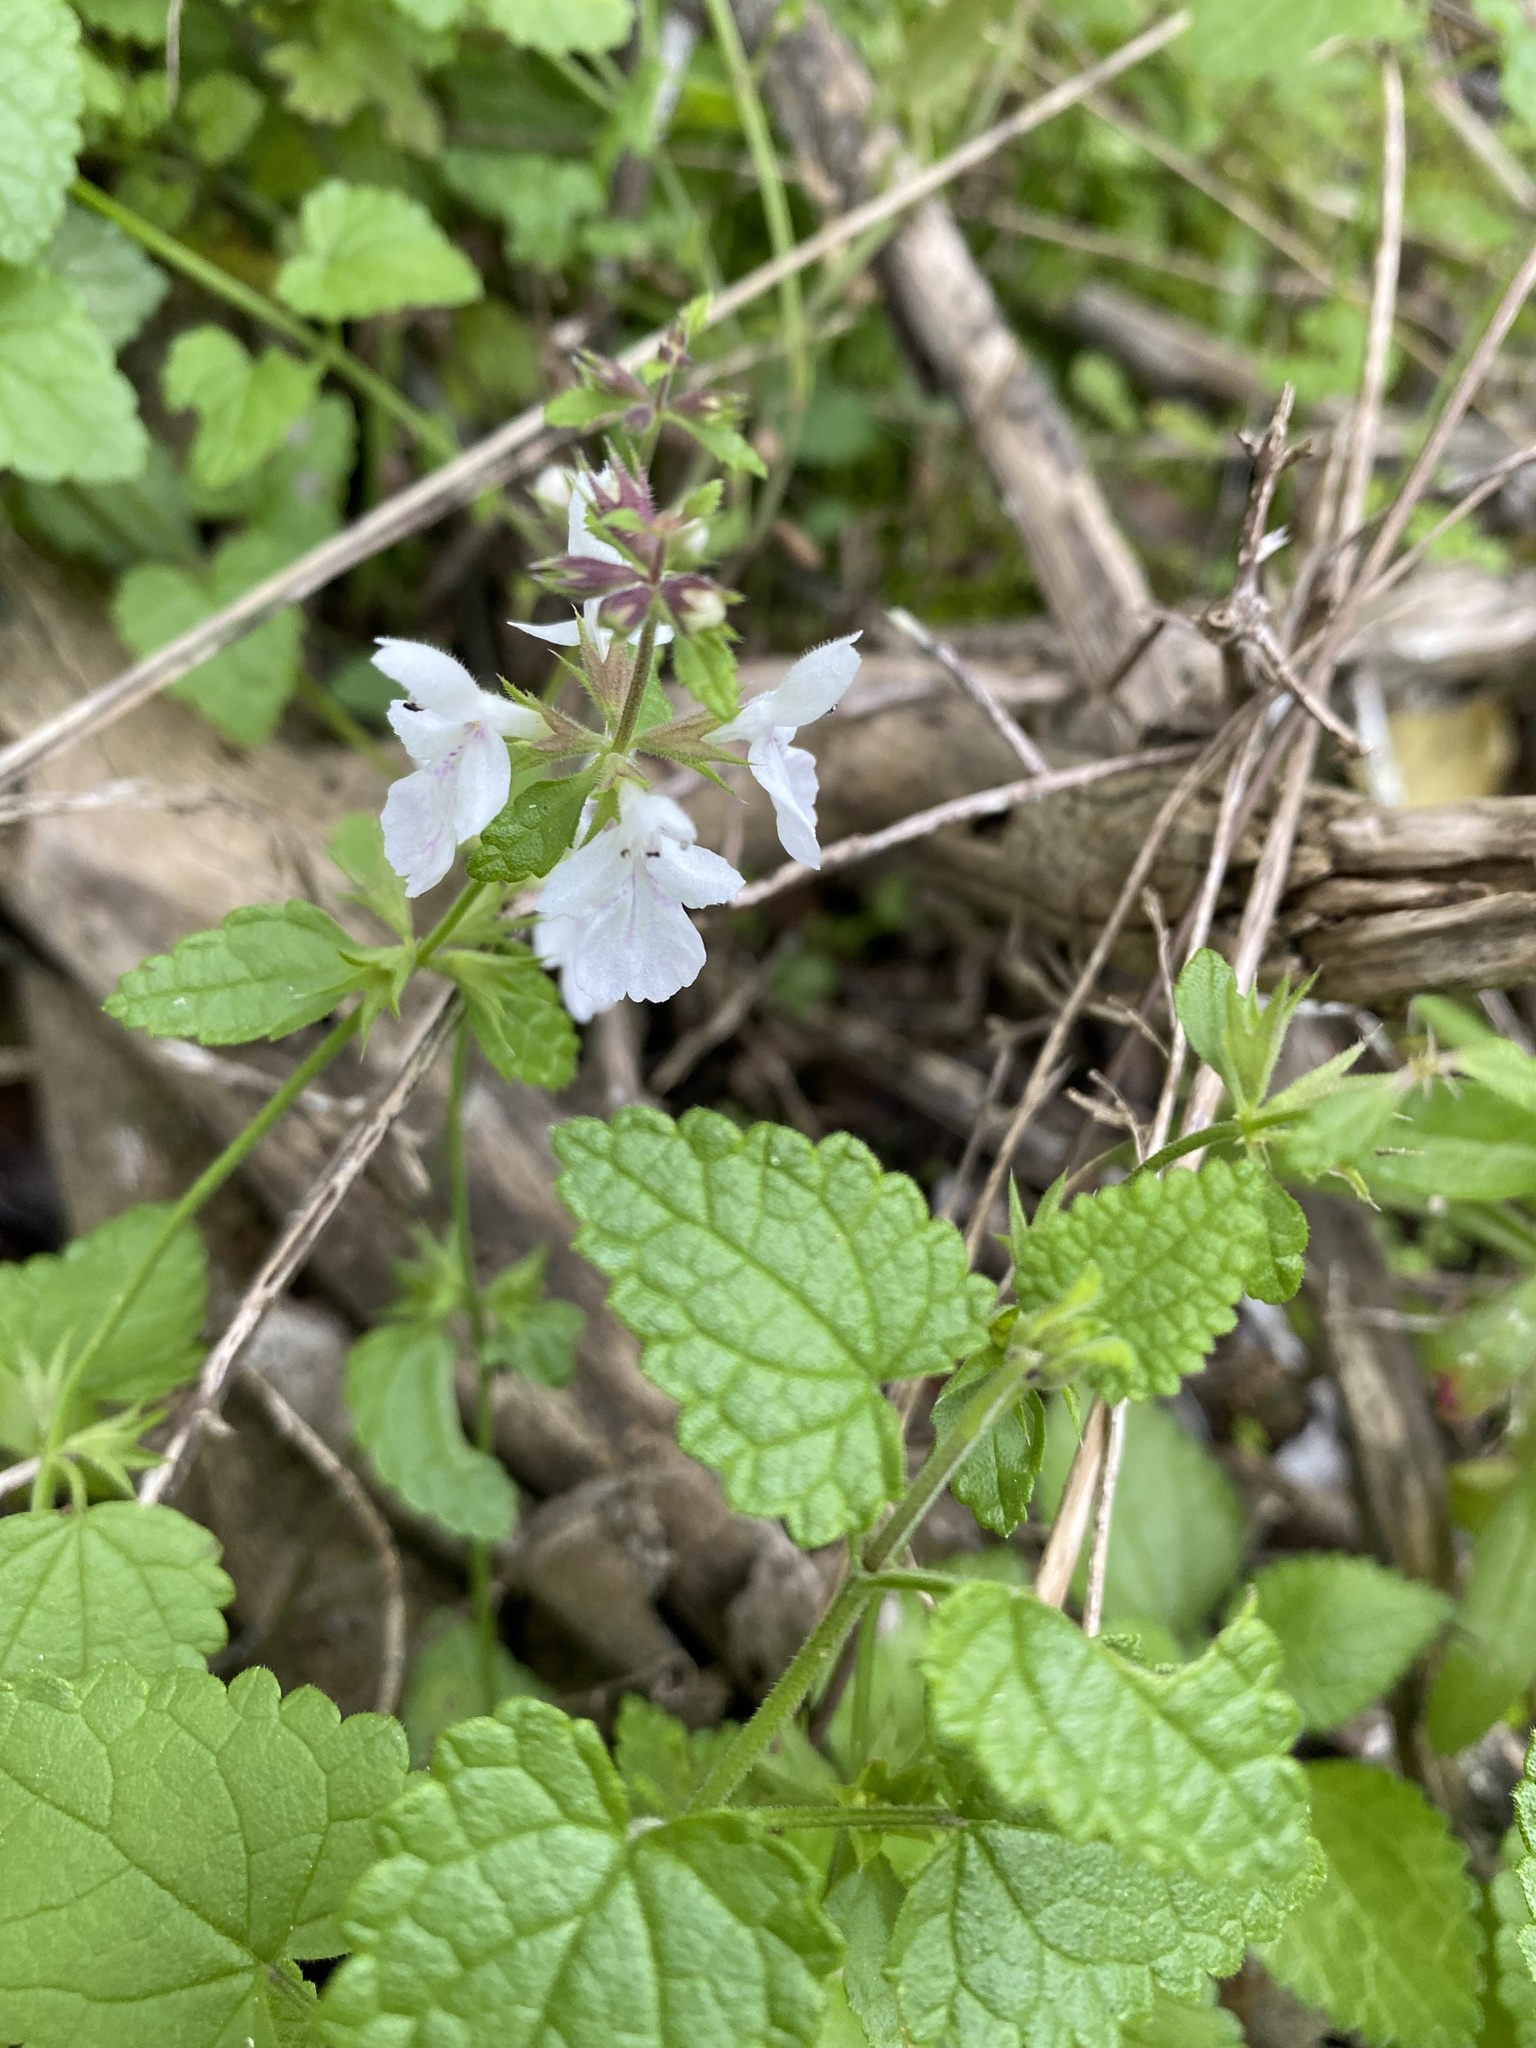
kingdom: Plantae
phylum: Tracheophyta
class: Magnoliopsida
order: Lamiales
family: Lamiaceae
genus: Stachys
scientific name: Stachys aethiopica
